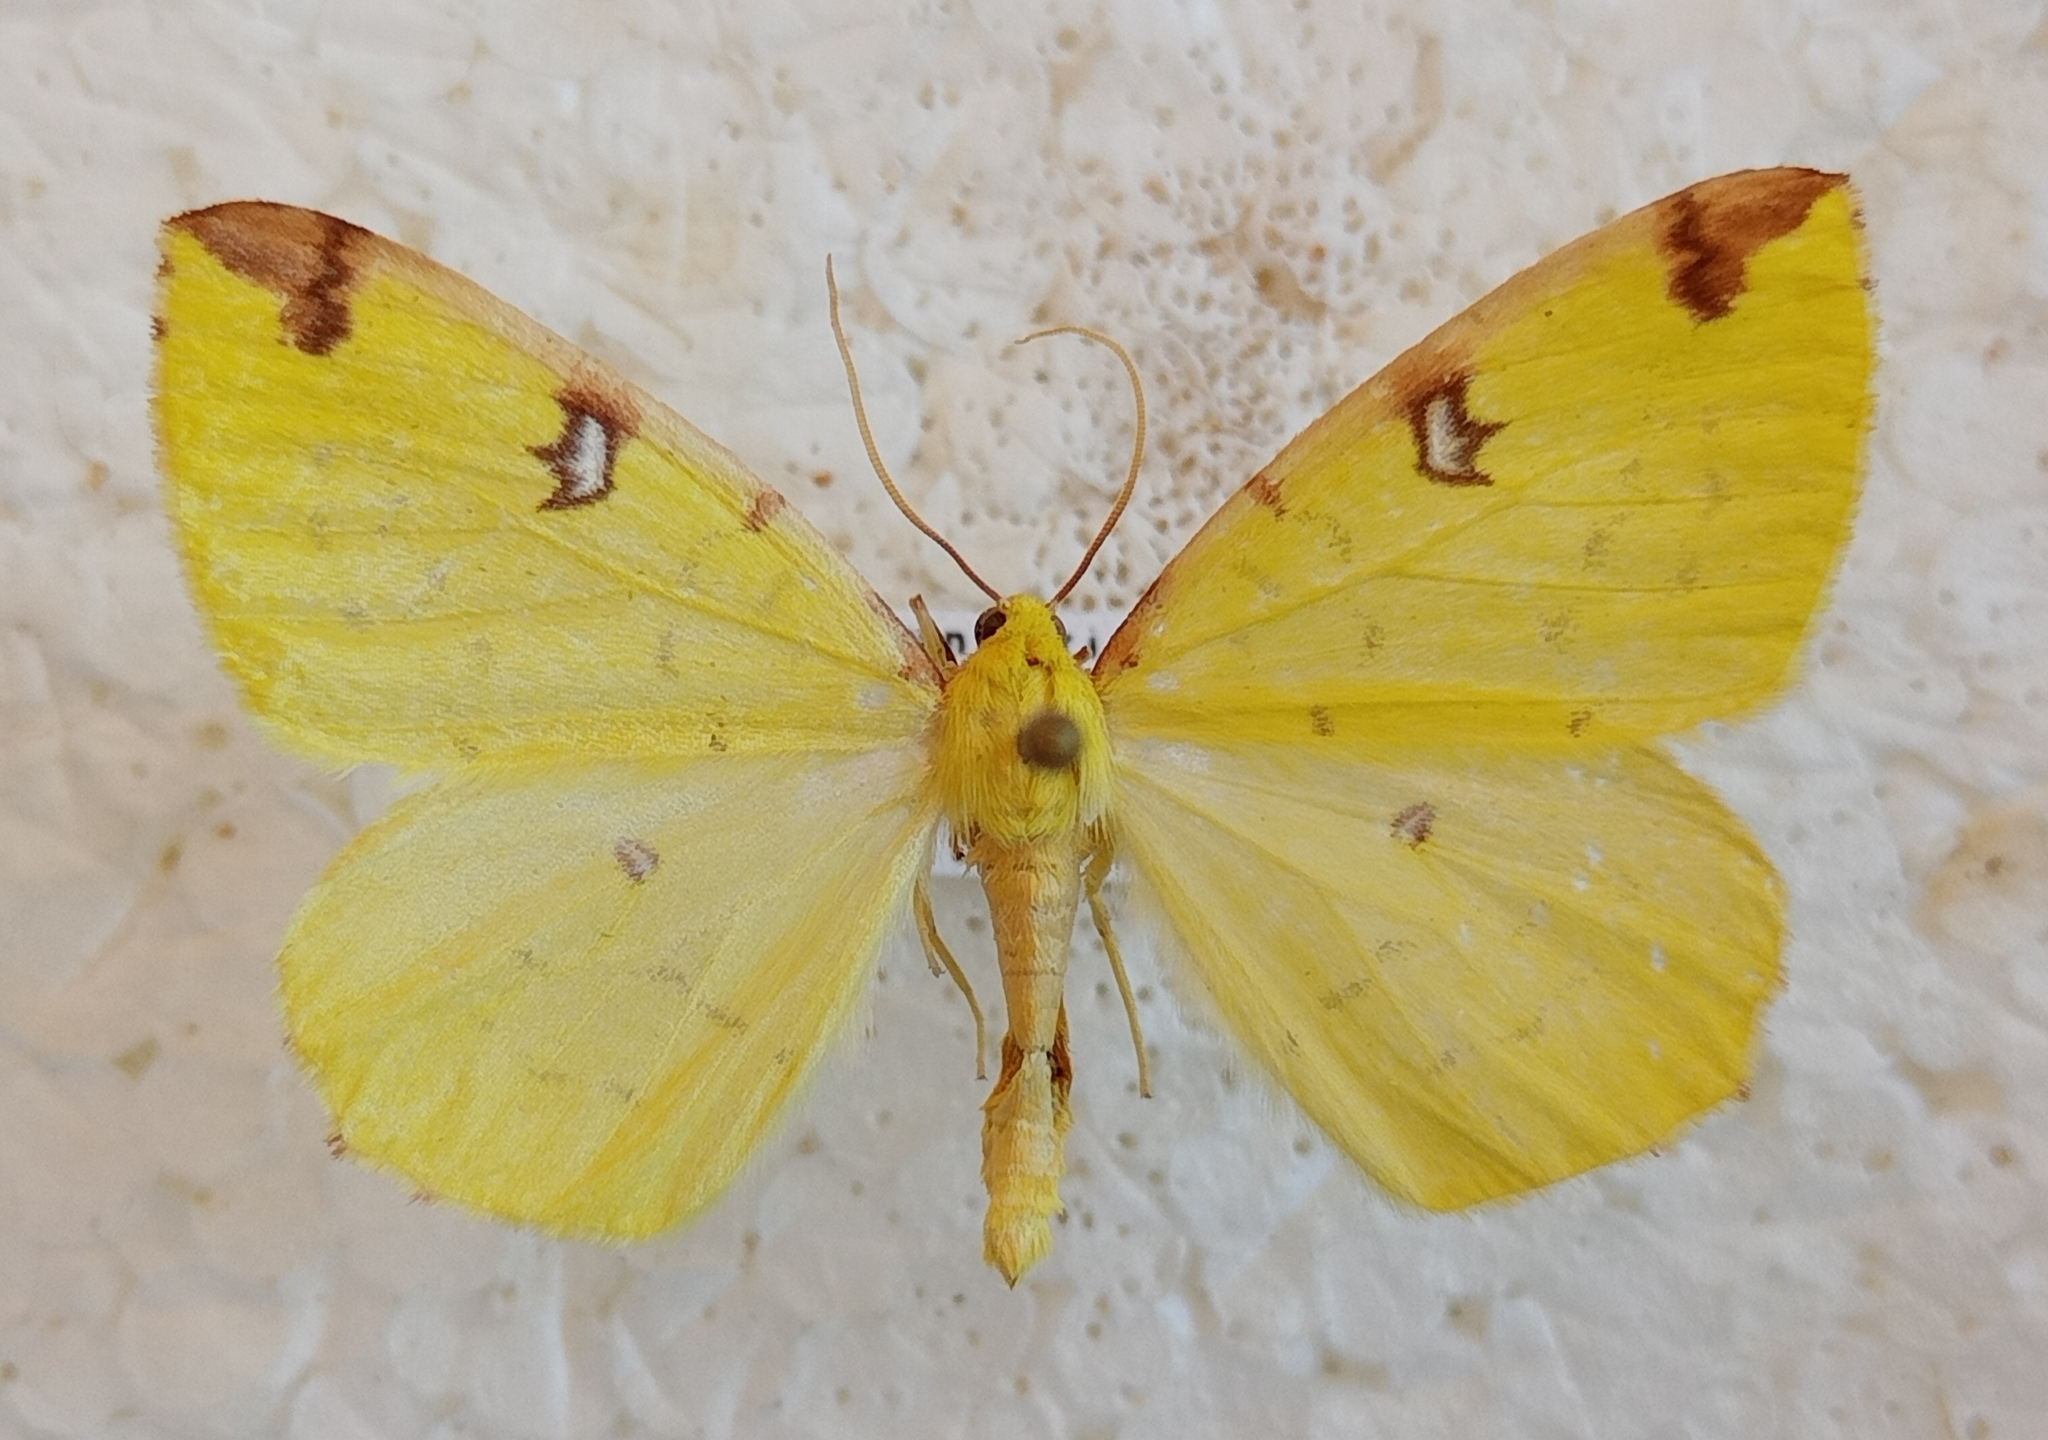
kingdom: Animalia
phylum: Arthropoda
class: Insecta
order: Lepidoptera
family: Geometridae
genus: Opisthograptis
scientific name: Opisthograptis luteolata
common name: Brimstone moth
